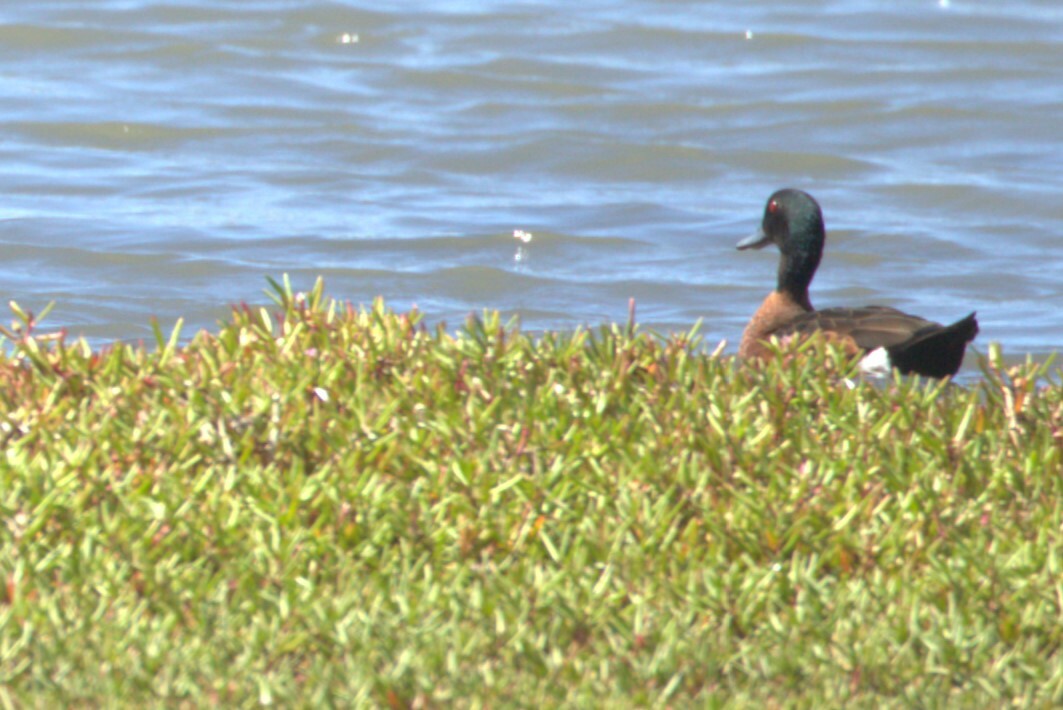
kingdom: Animalia
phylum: Chordata
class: Aves
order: Anseriformes
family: Anatidae
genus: Anas
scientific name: Anas castanea
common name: Chestnut teal
